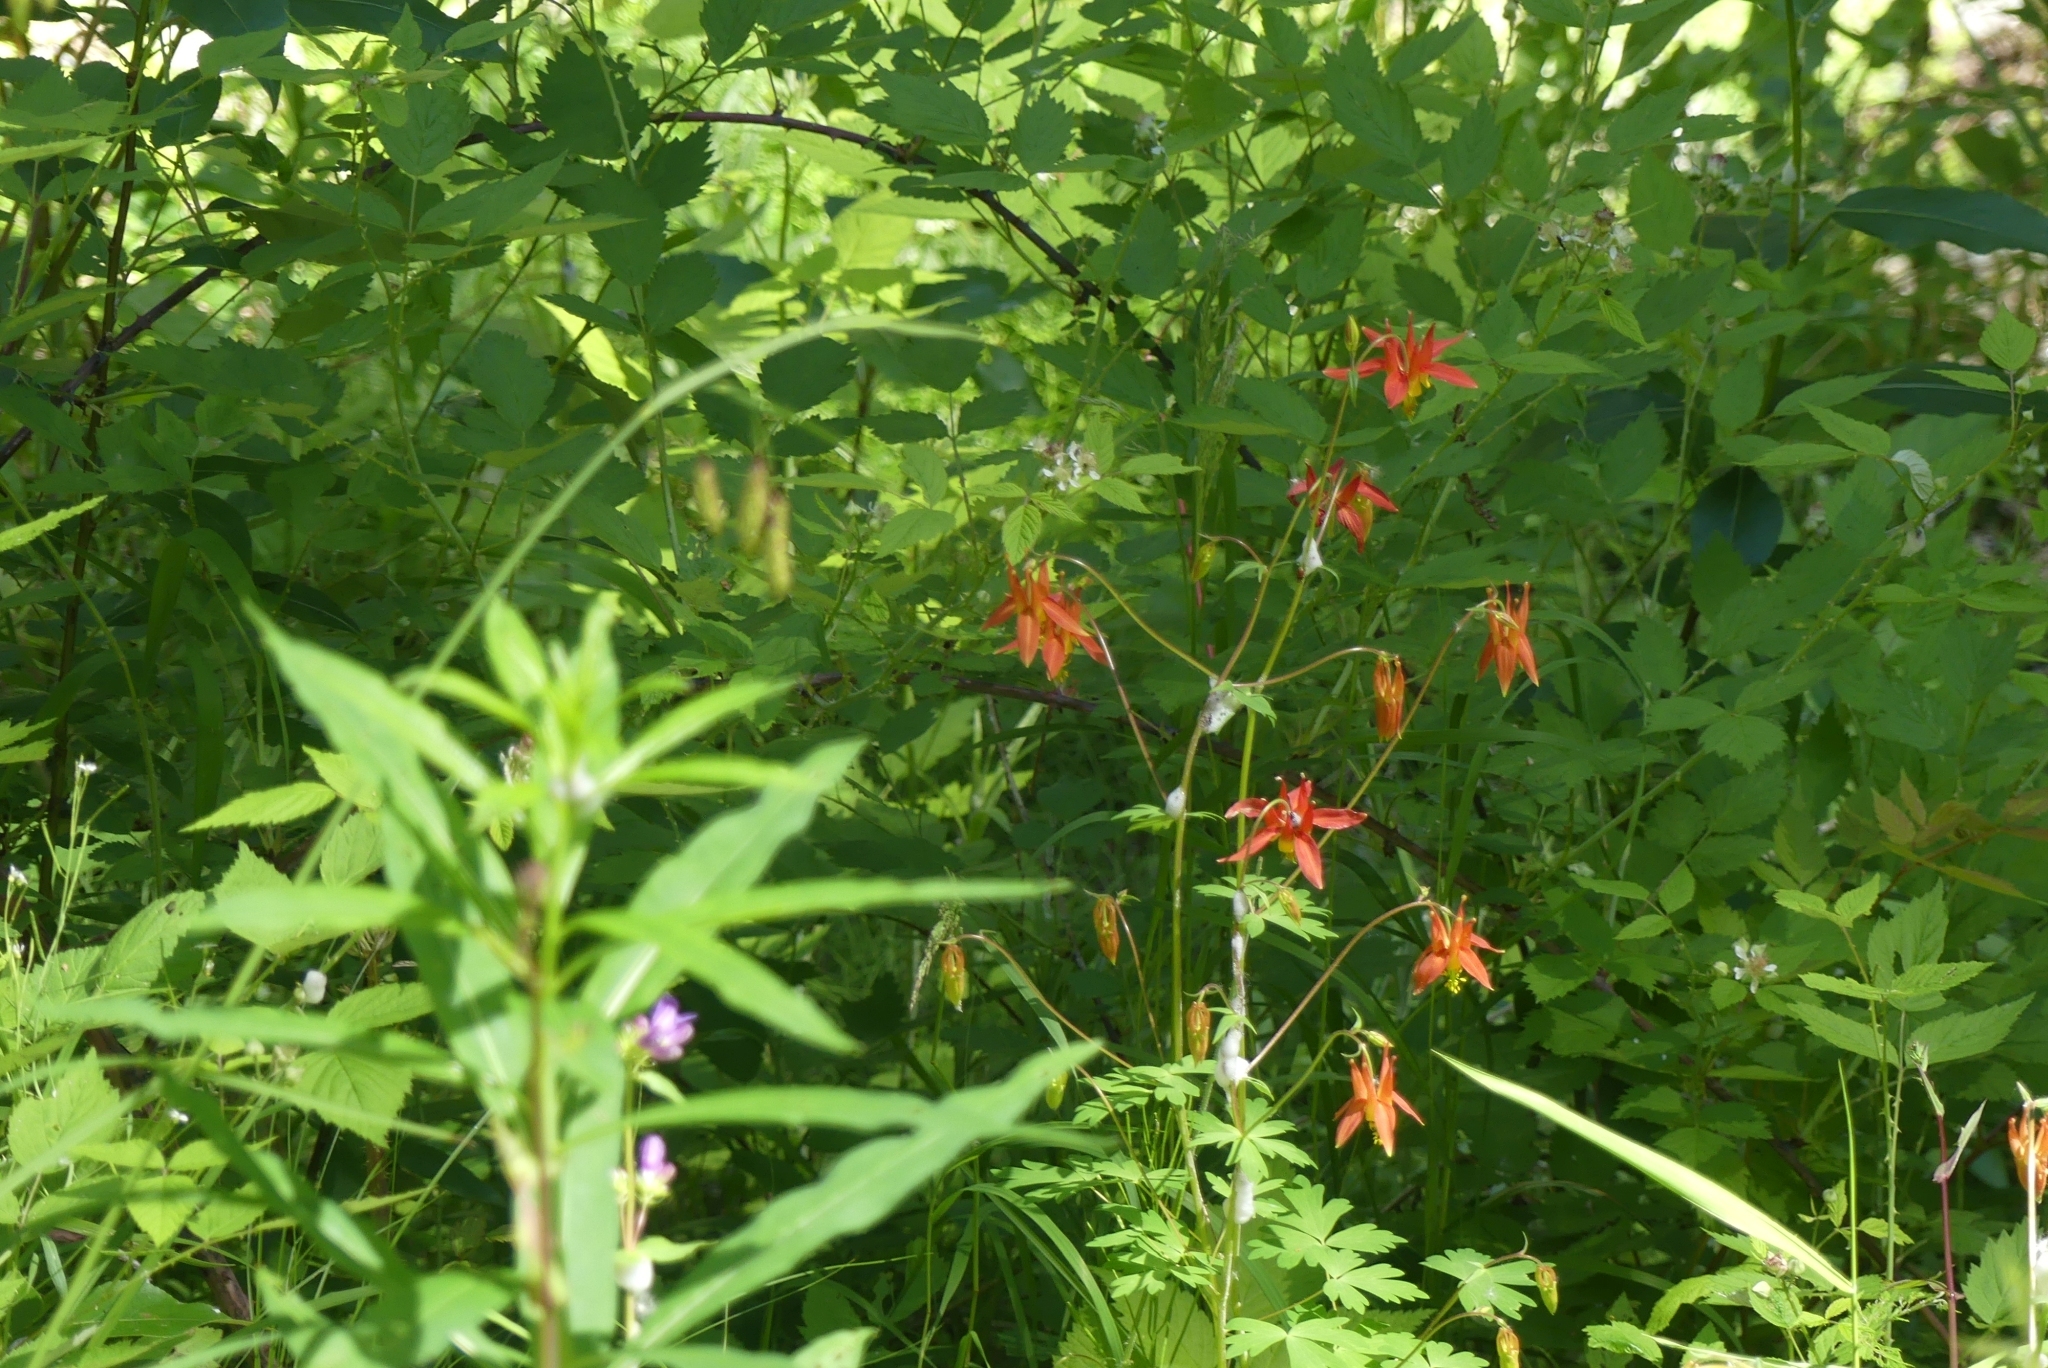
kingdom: Plantae
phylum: Tracheophyta
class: Magnoliopsida
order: Ranunculales
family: Ranunculaceae
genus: Aquilegia
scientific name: Aquilegia formosa
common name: Sitka columbine
